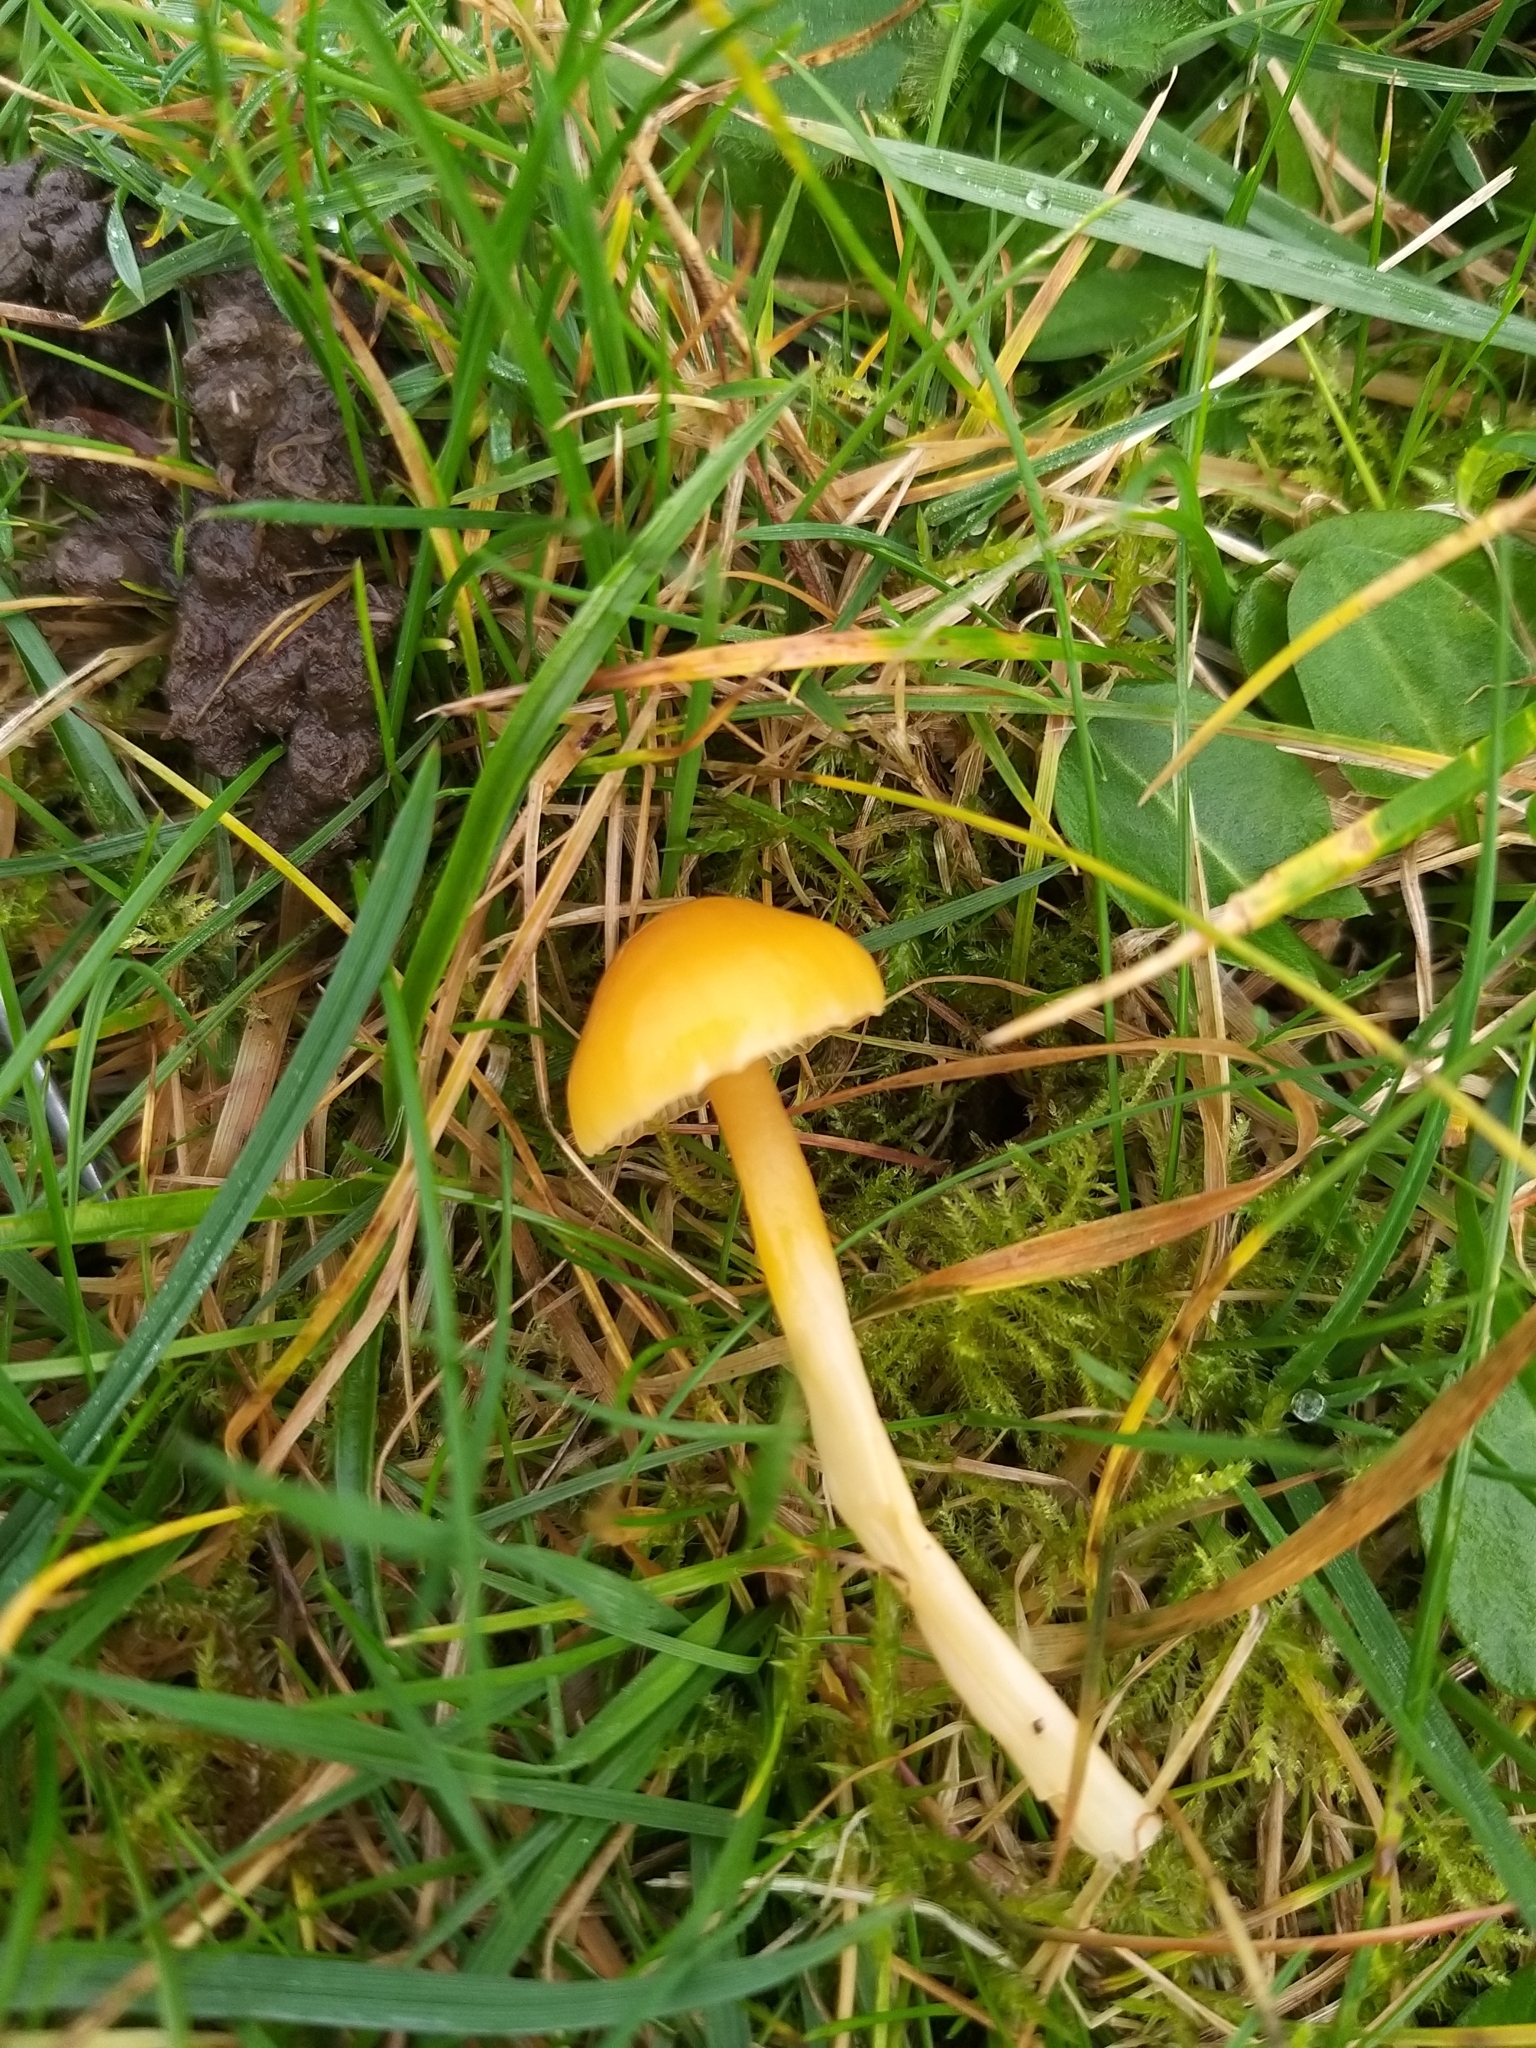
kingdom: Fungi
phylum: Basidiomycota
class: Agaricomycetes
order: Agaricales
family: Hygrophoraceae
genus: Gliophorus
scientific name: Gliophorus psittacinus
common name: Parrot wax-cap
